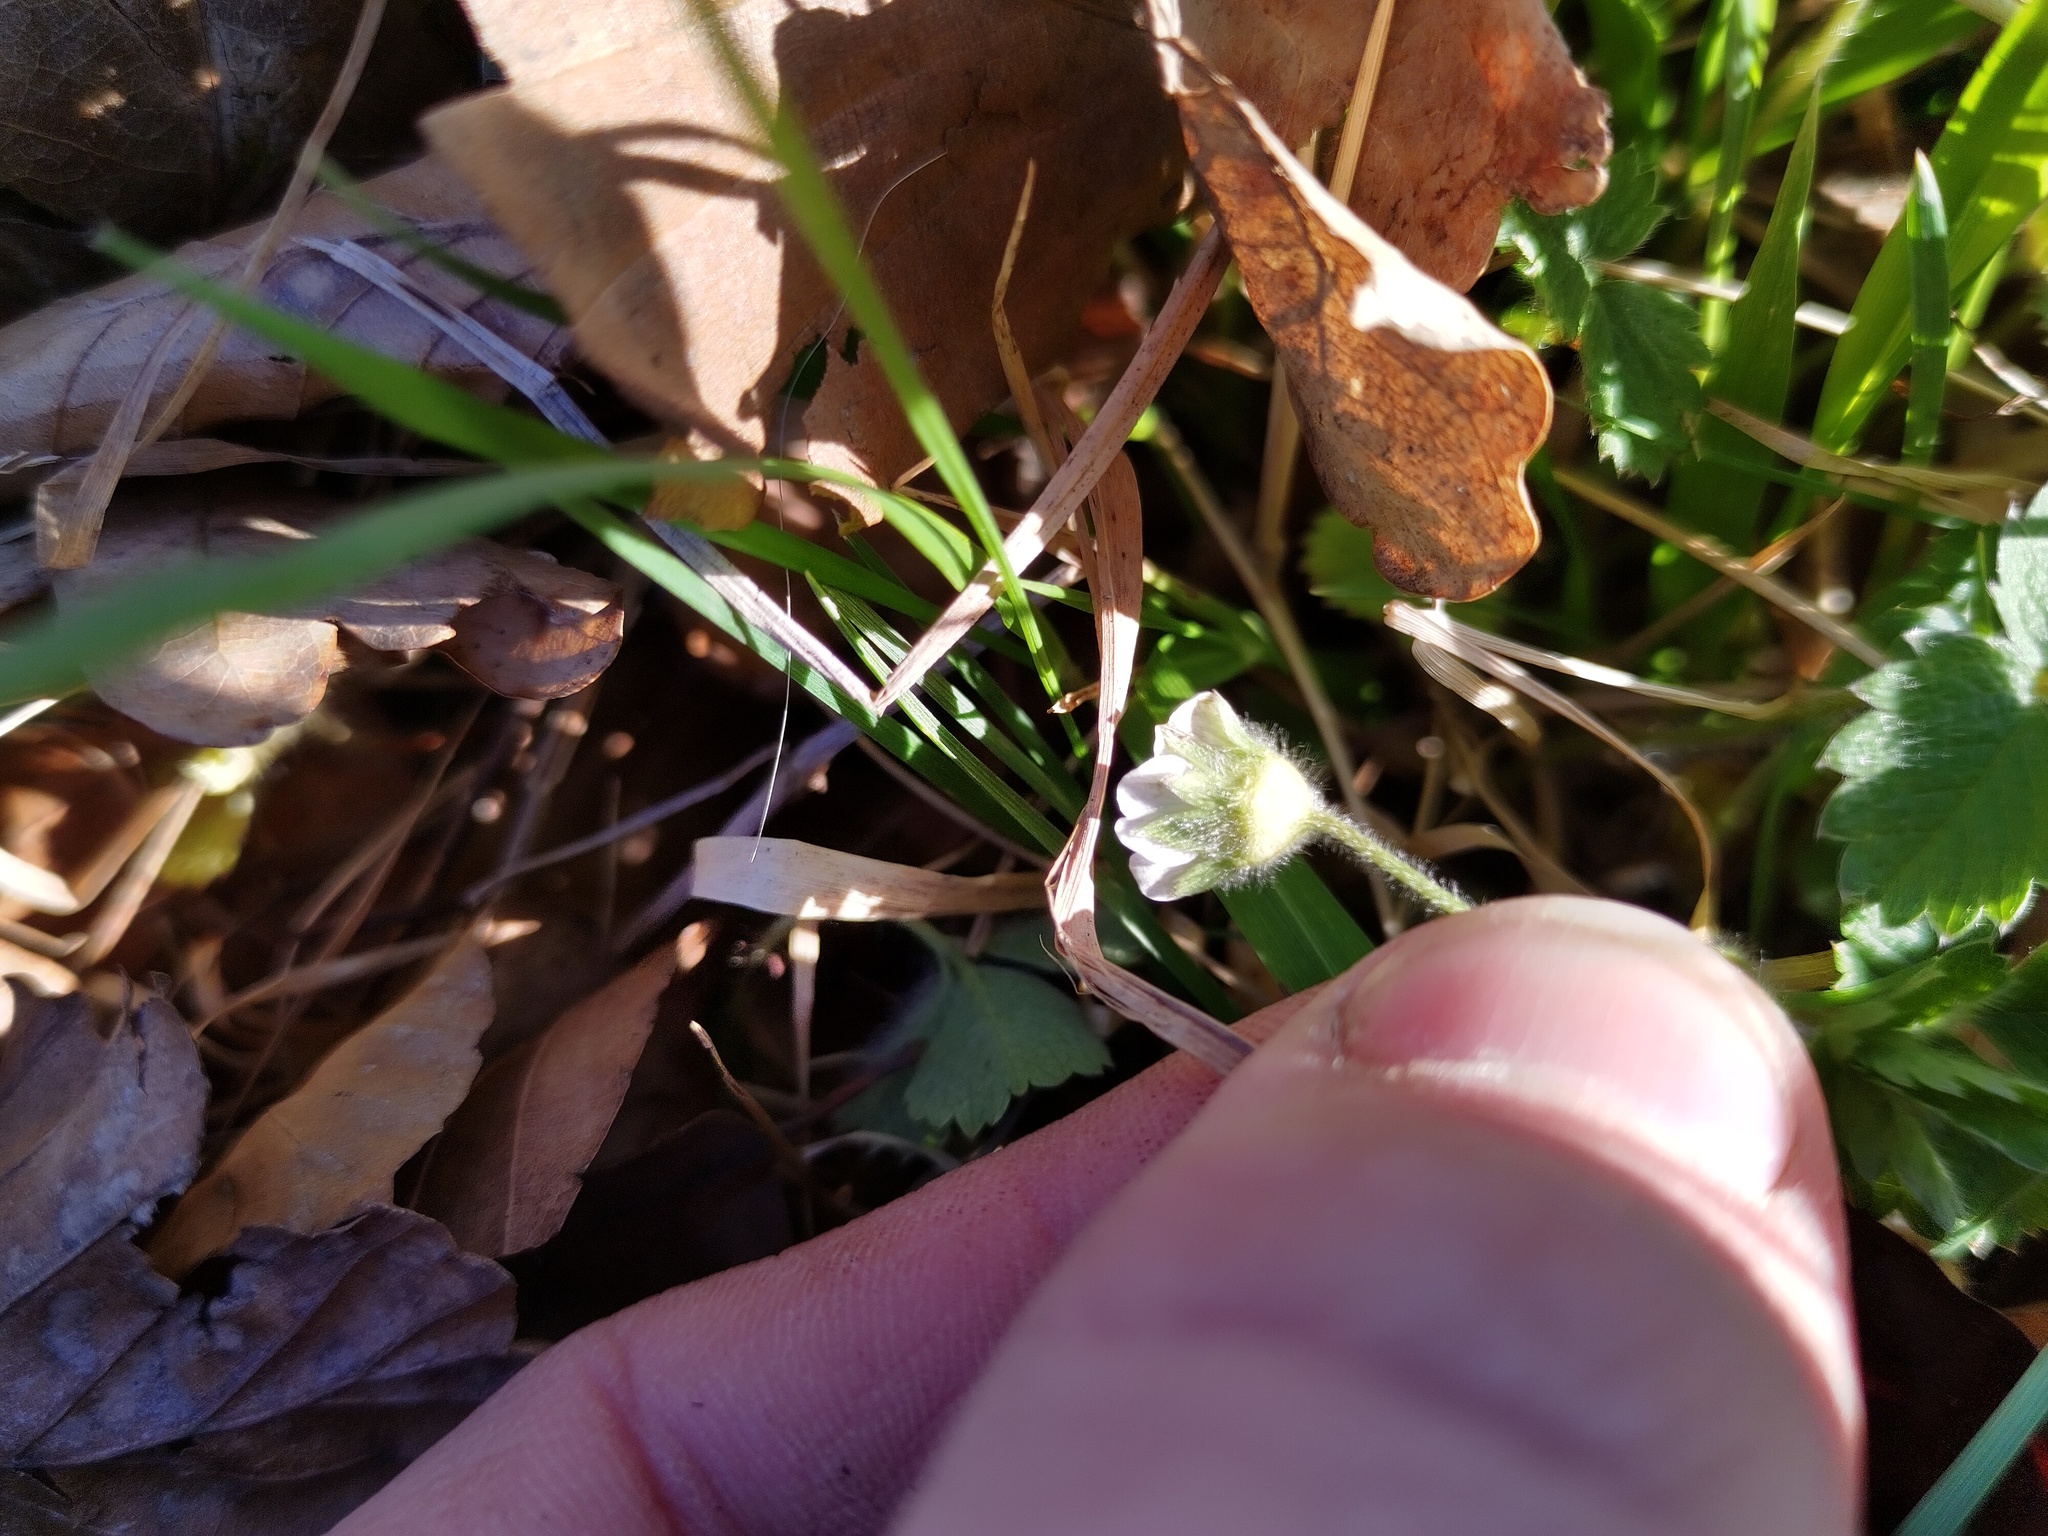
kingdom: Plantae
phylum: Tracheophyta
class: Magnoliopsida
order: Rosales
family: Rosaceae
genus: Potentilla
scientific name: Potentilla sterilis
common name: Barren strawberry
